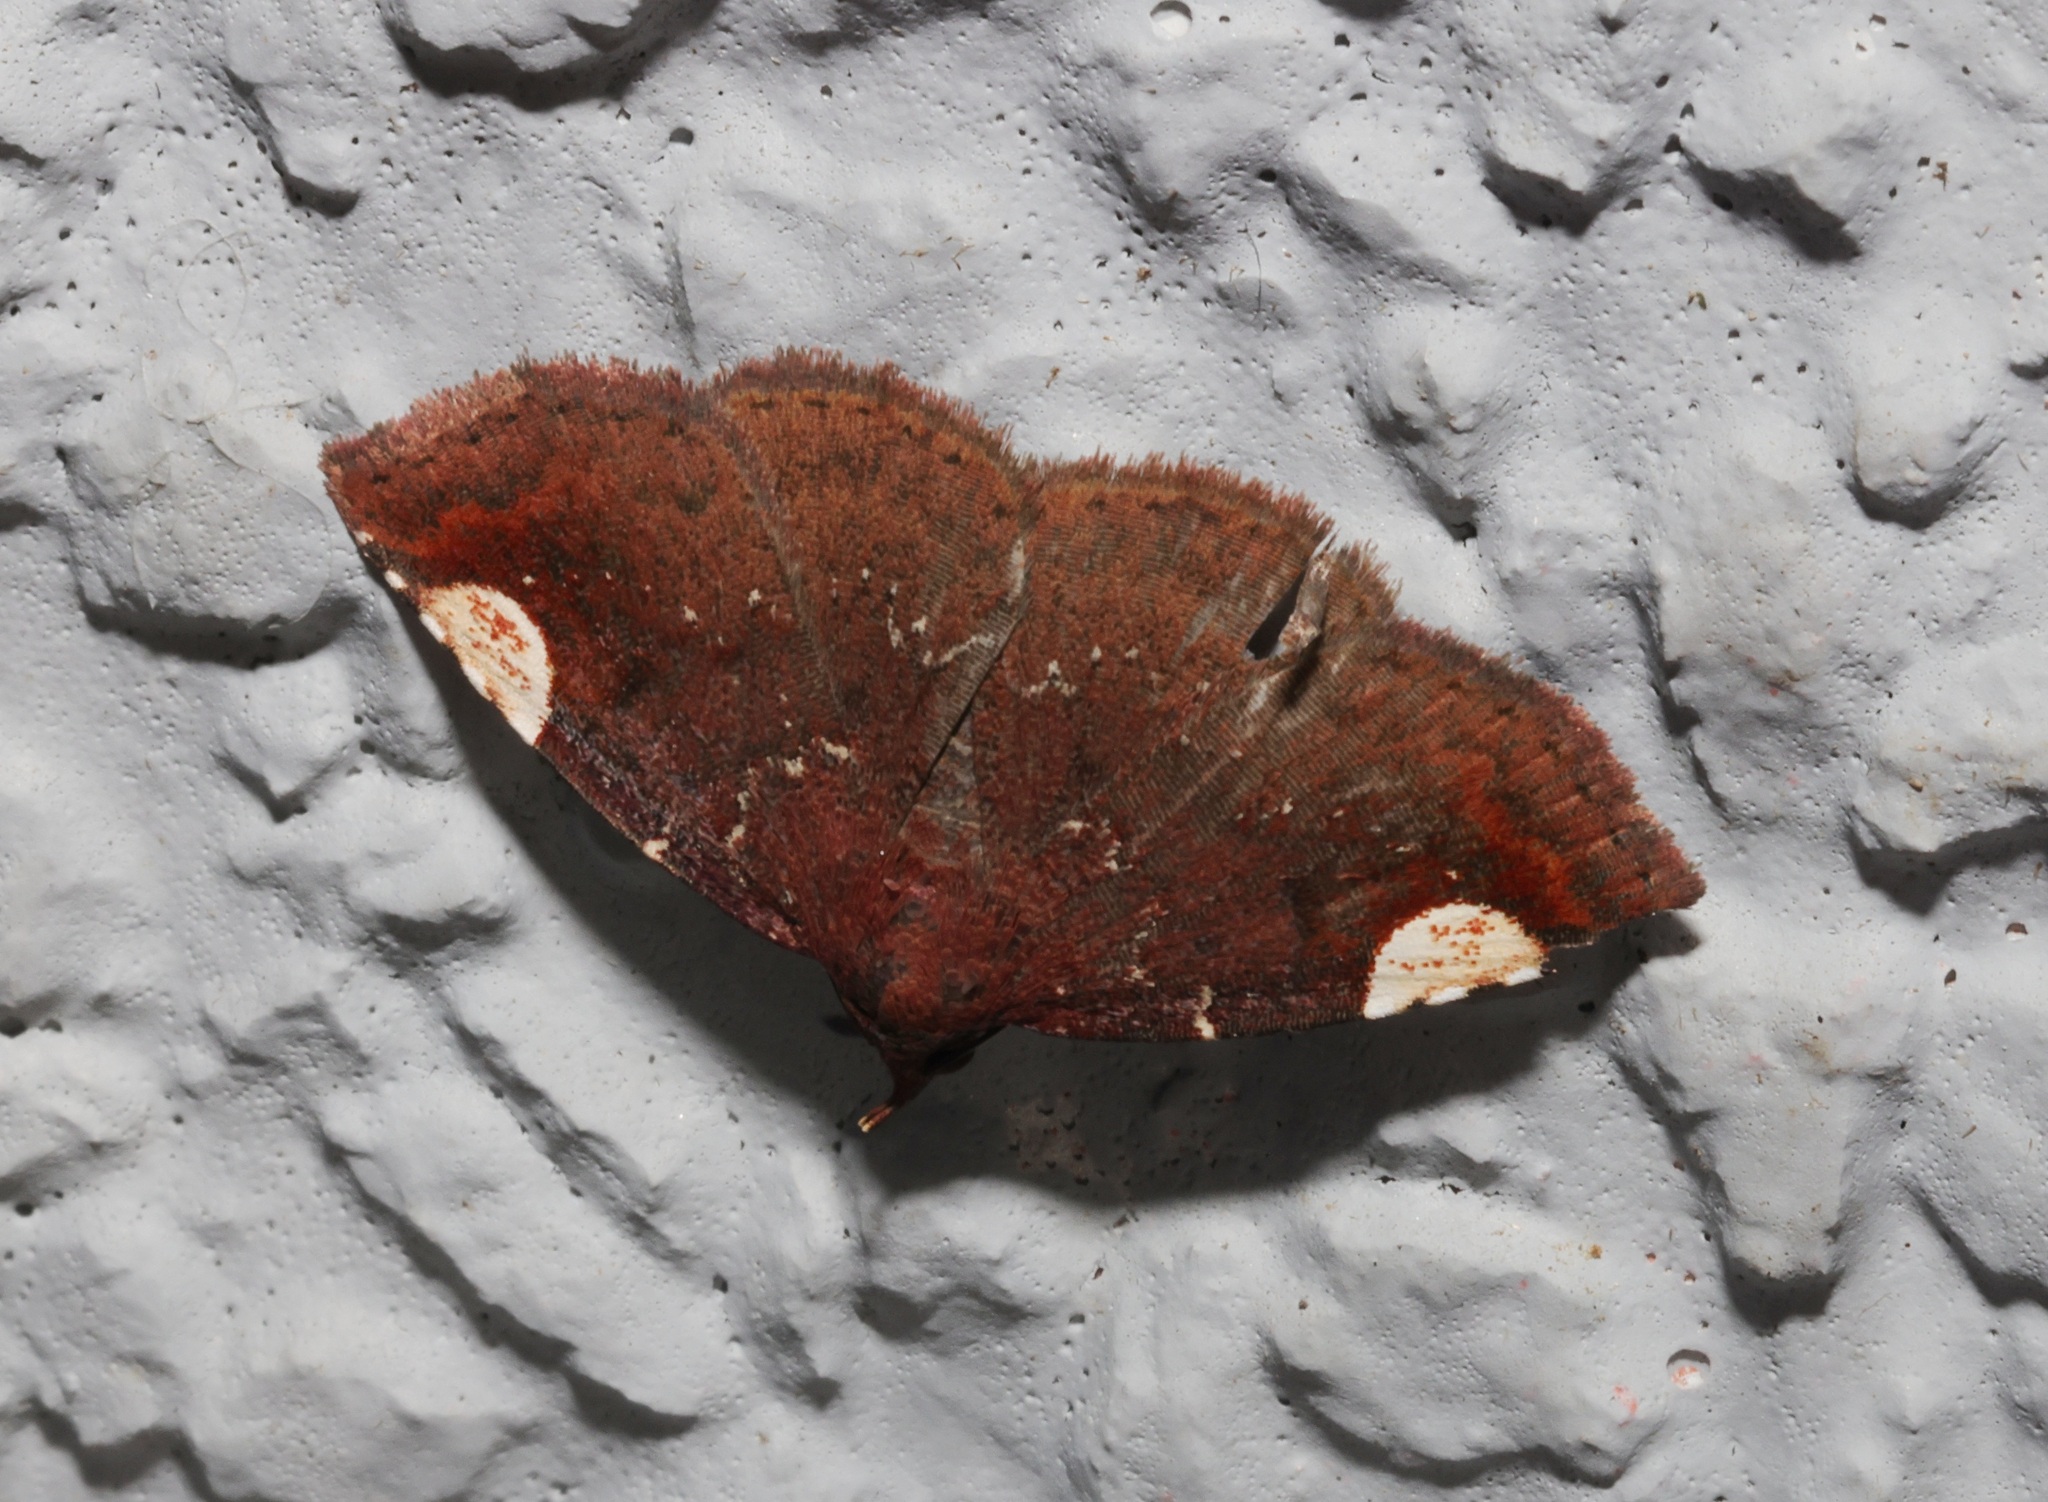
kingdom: Animalia
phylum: Arthropoda
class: Insecta
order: Lepidoptera
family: Erebidae
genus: Pangrapta
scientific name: Pangrapta roseinotata
